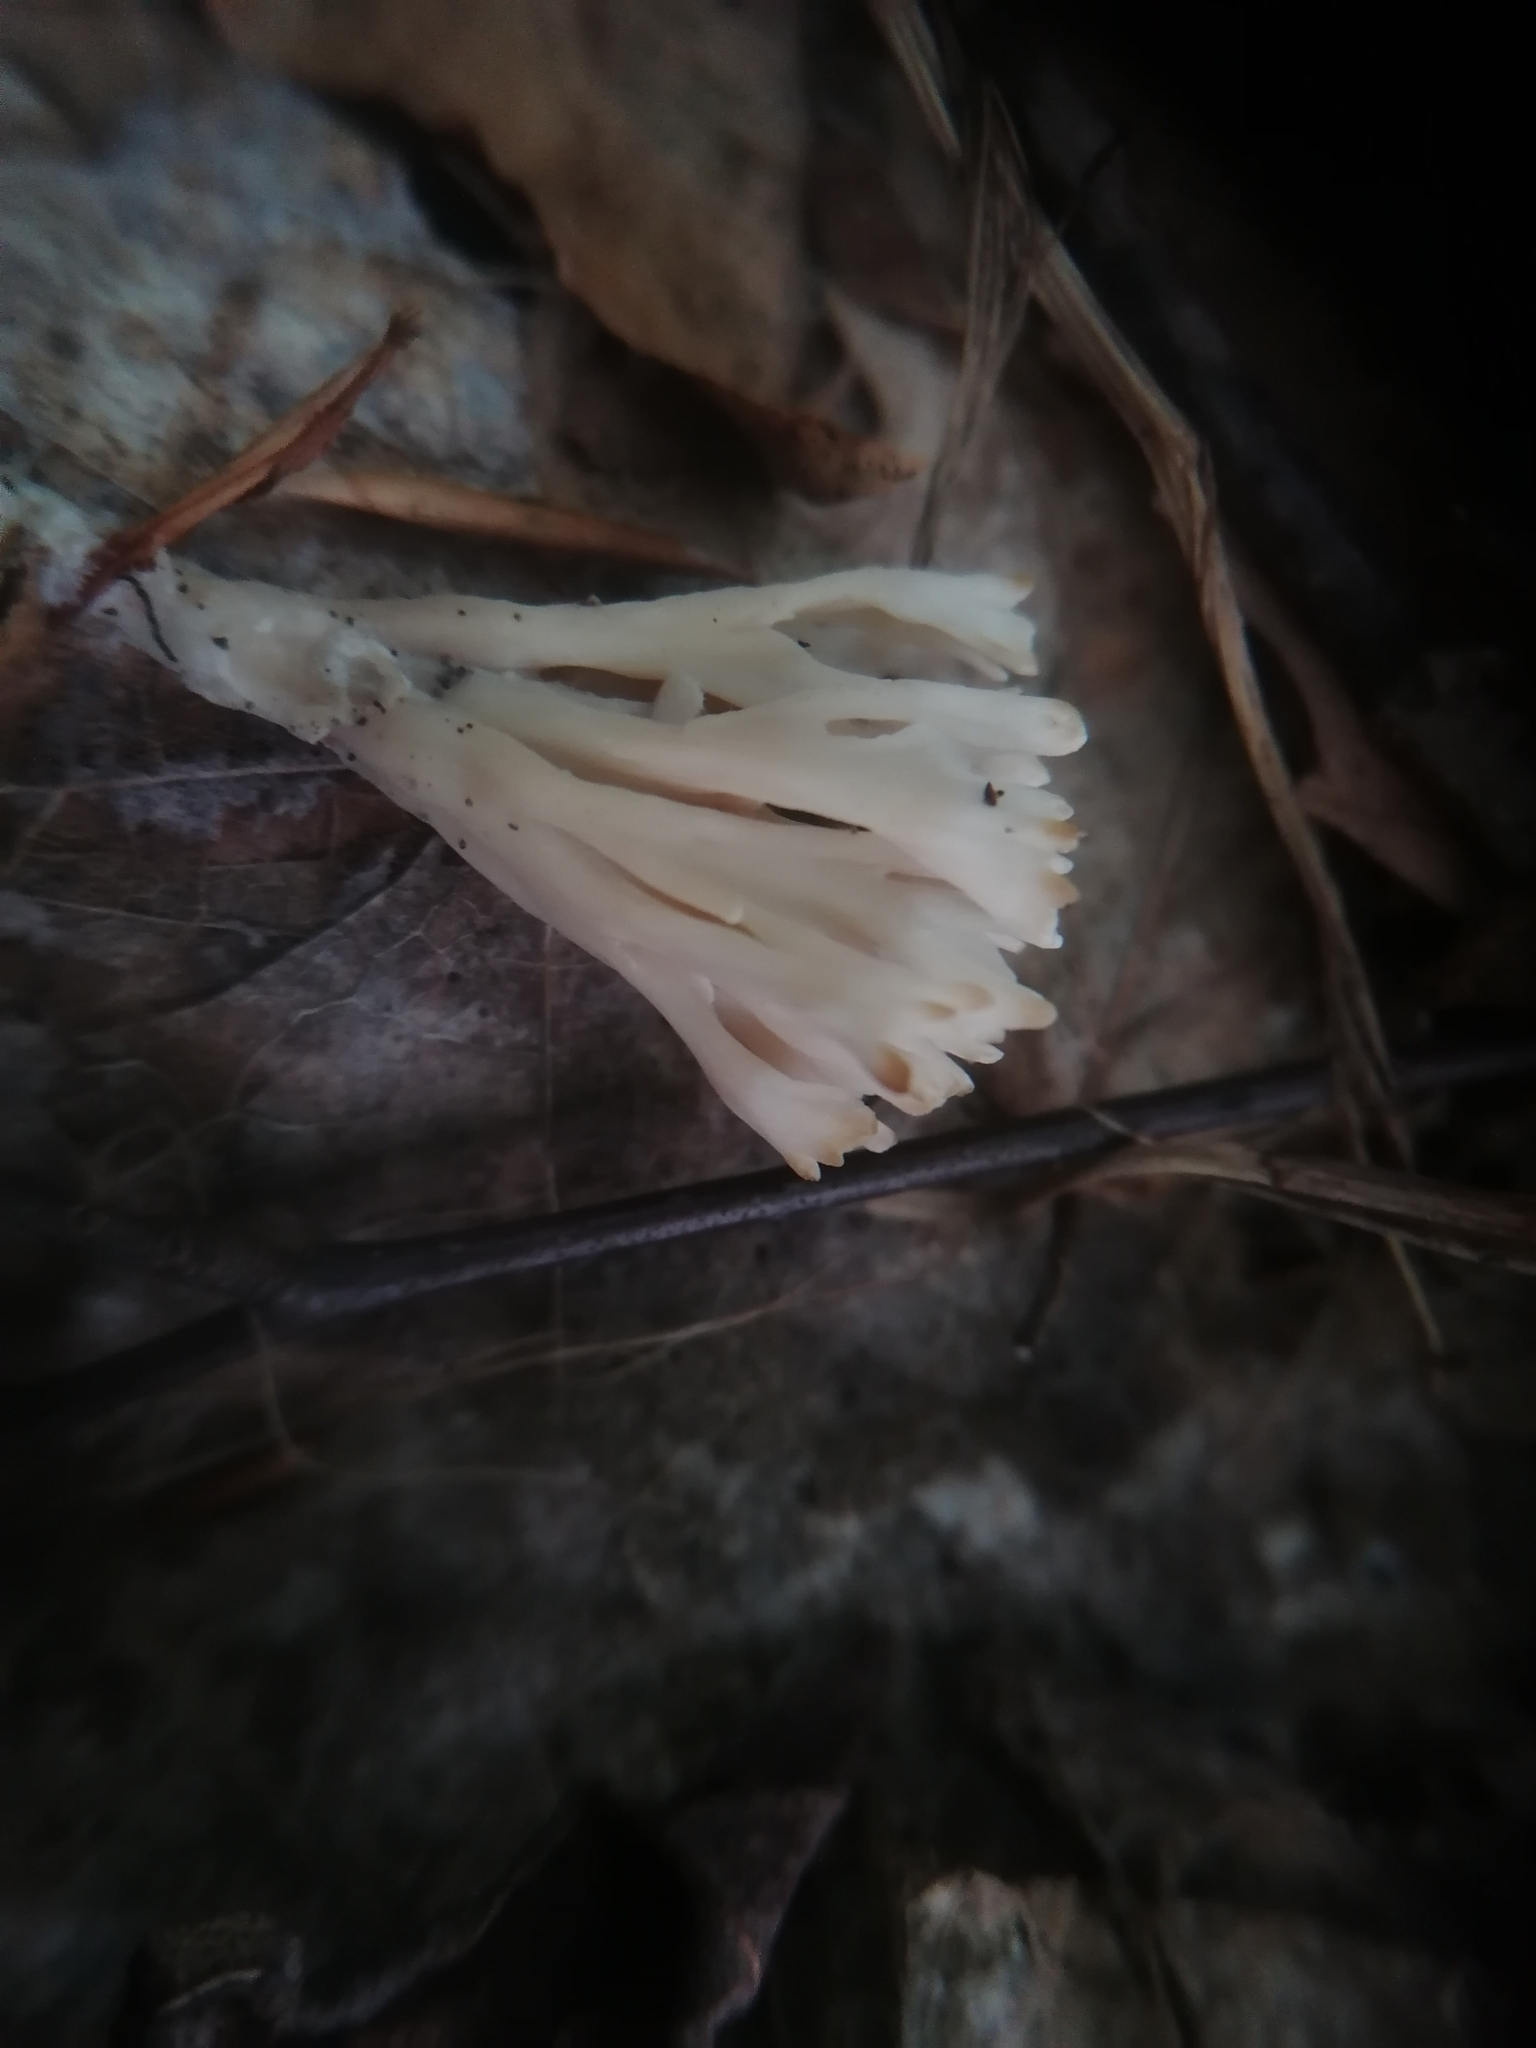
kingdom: Fungi
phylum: Basidiomycota
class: Agaricomycetes
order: Sebacinales
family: Sebacinaceae
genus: Sebacina
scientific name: Sebacina schweinitzii
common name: Jellied false coral fungus
